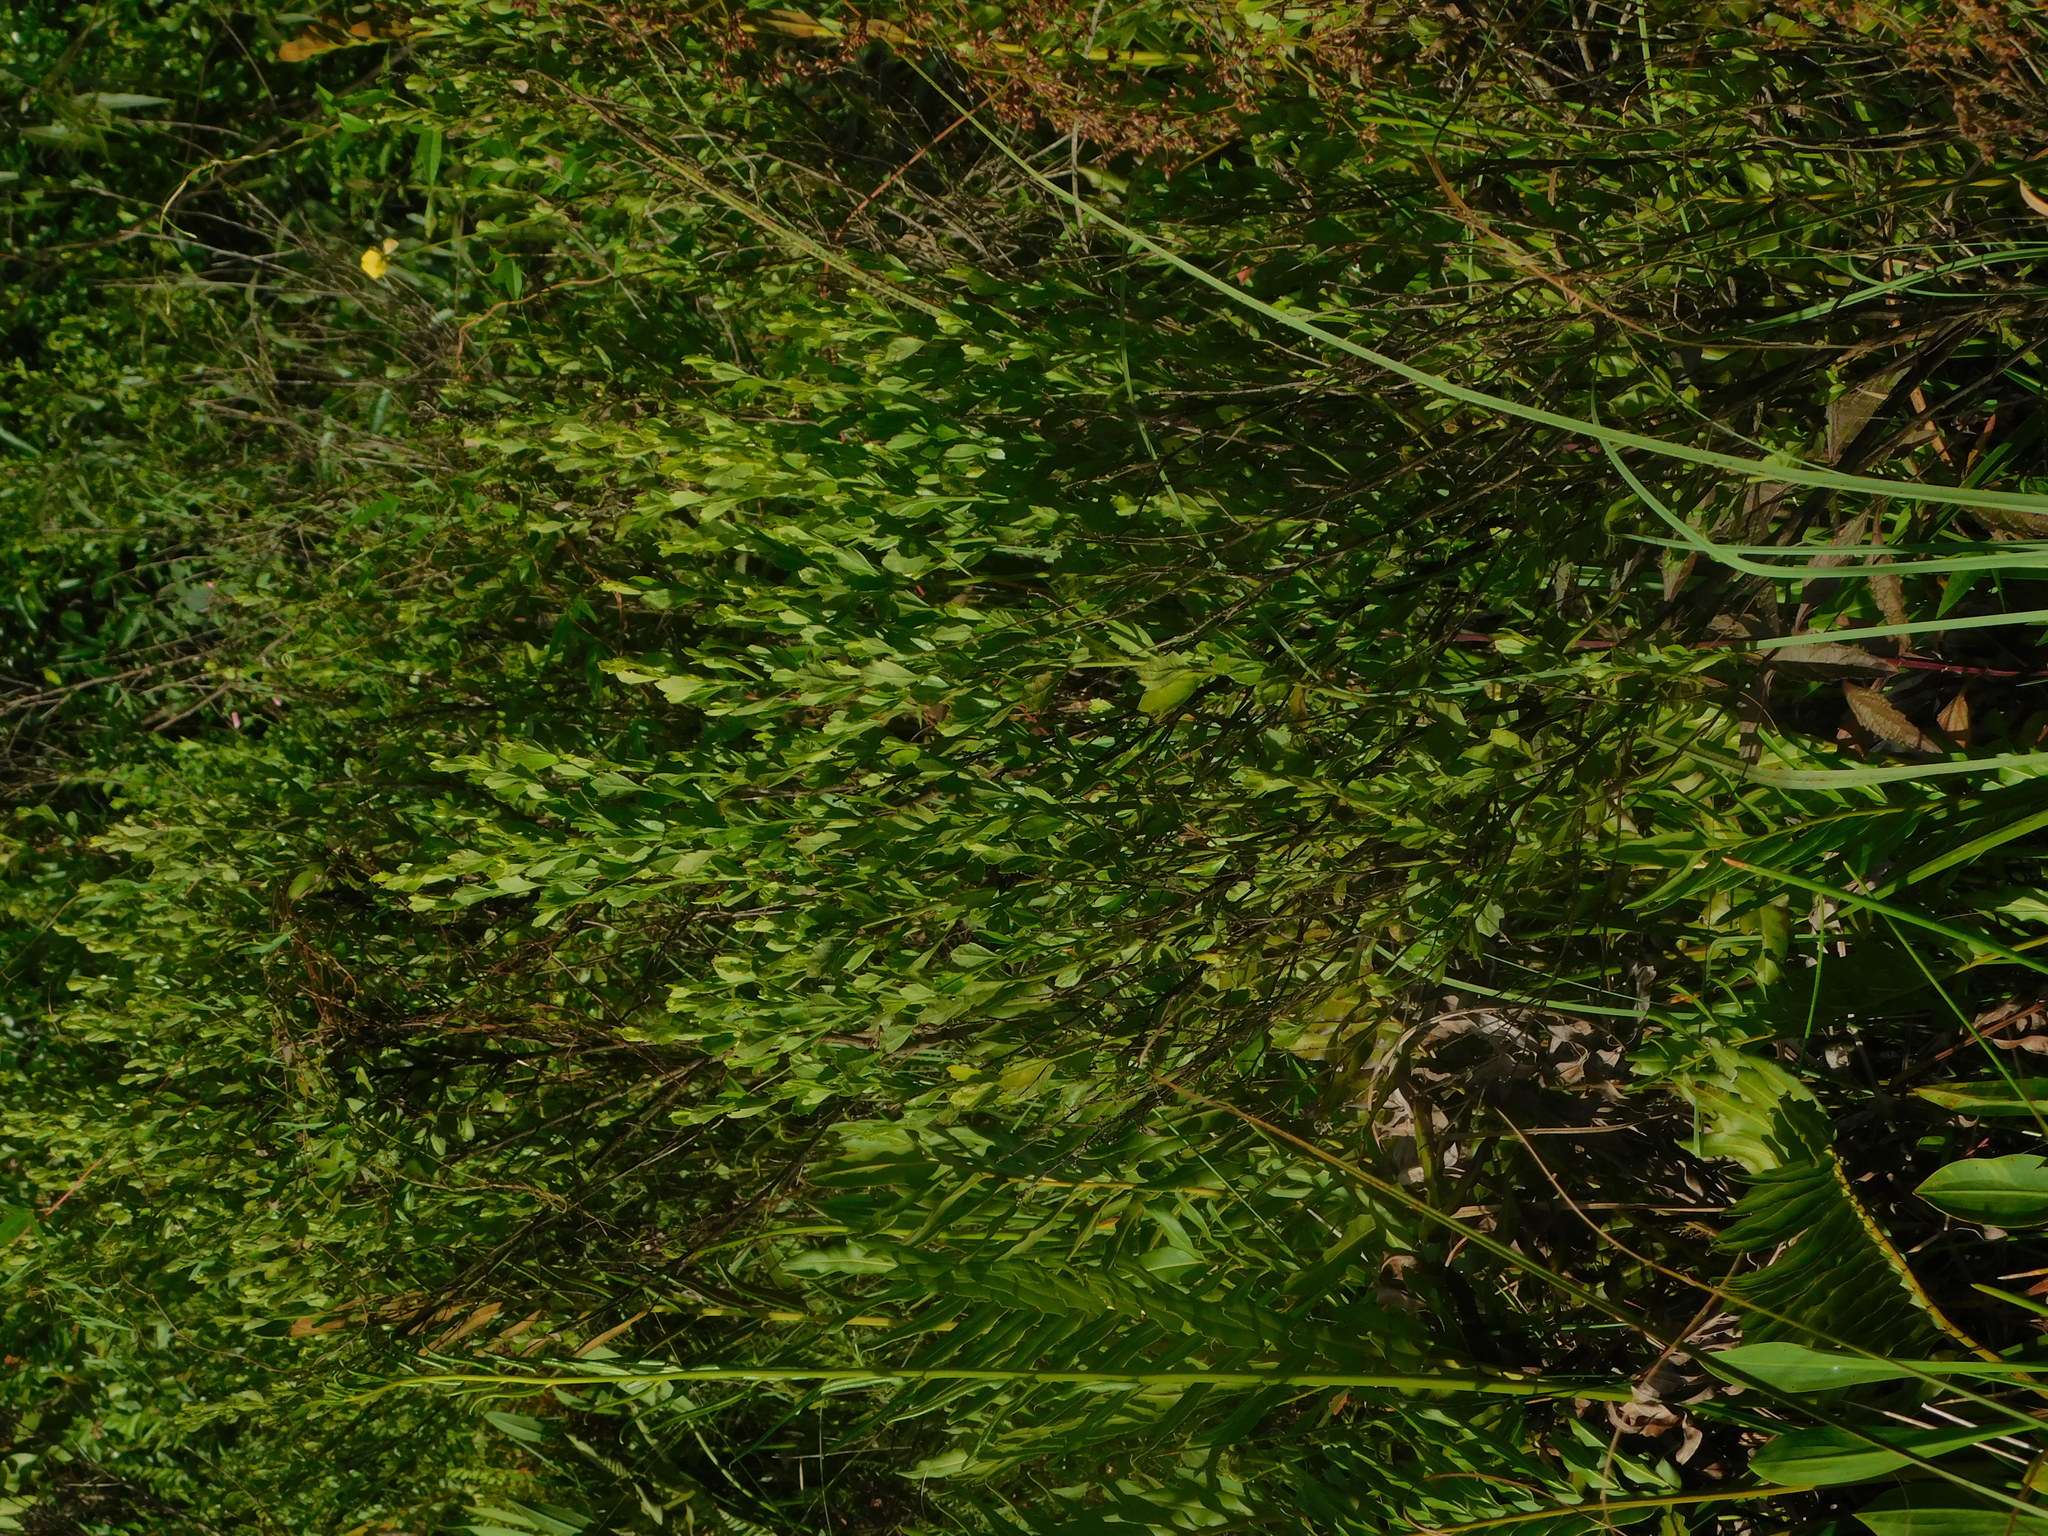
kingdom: Plantae
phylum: Tracheophyta
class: Magnoliopsida
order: Asterales
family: Asteraceae
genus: Baccharis
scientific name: Baccharis halimifolia
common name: Eastern baccharis
